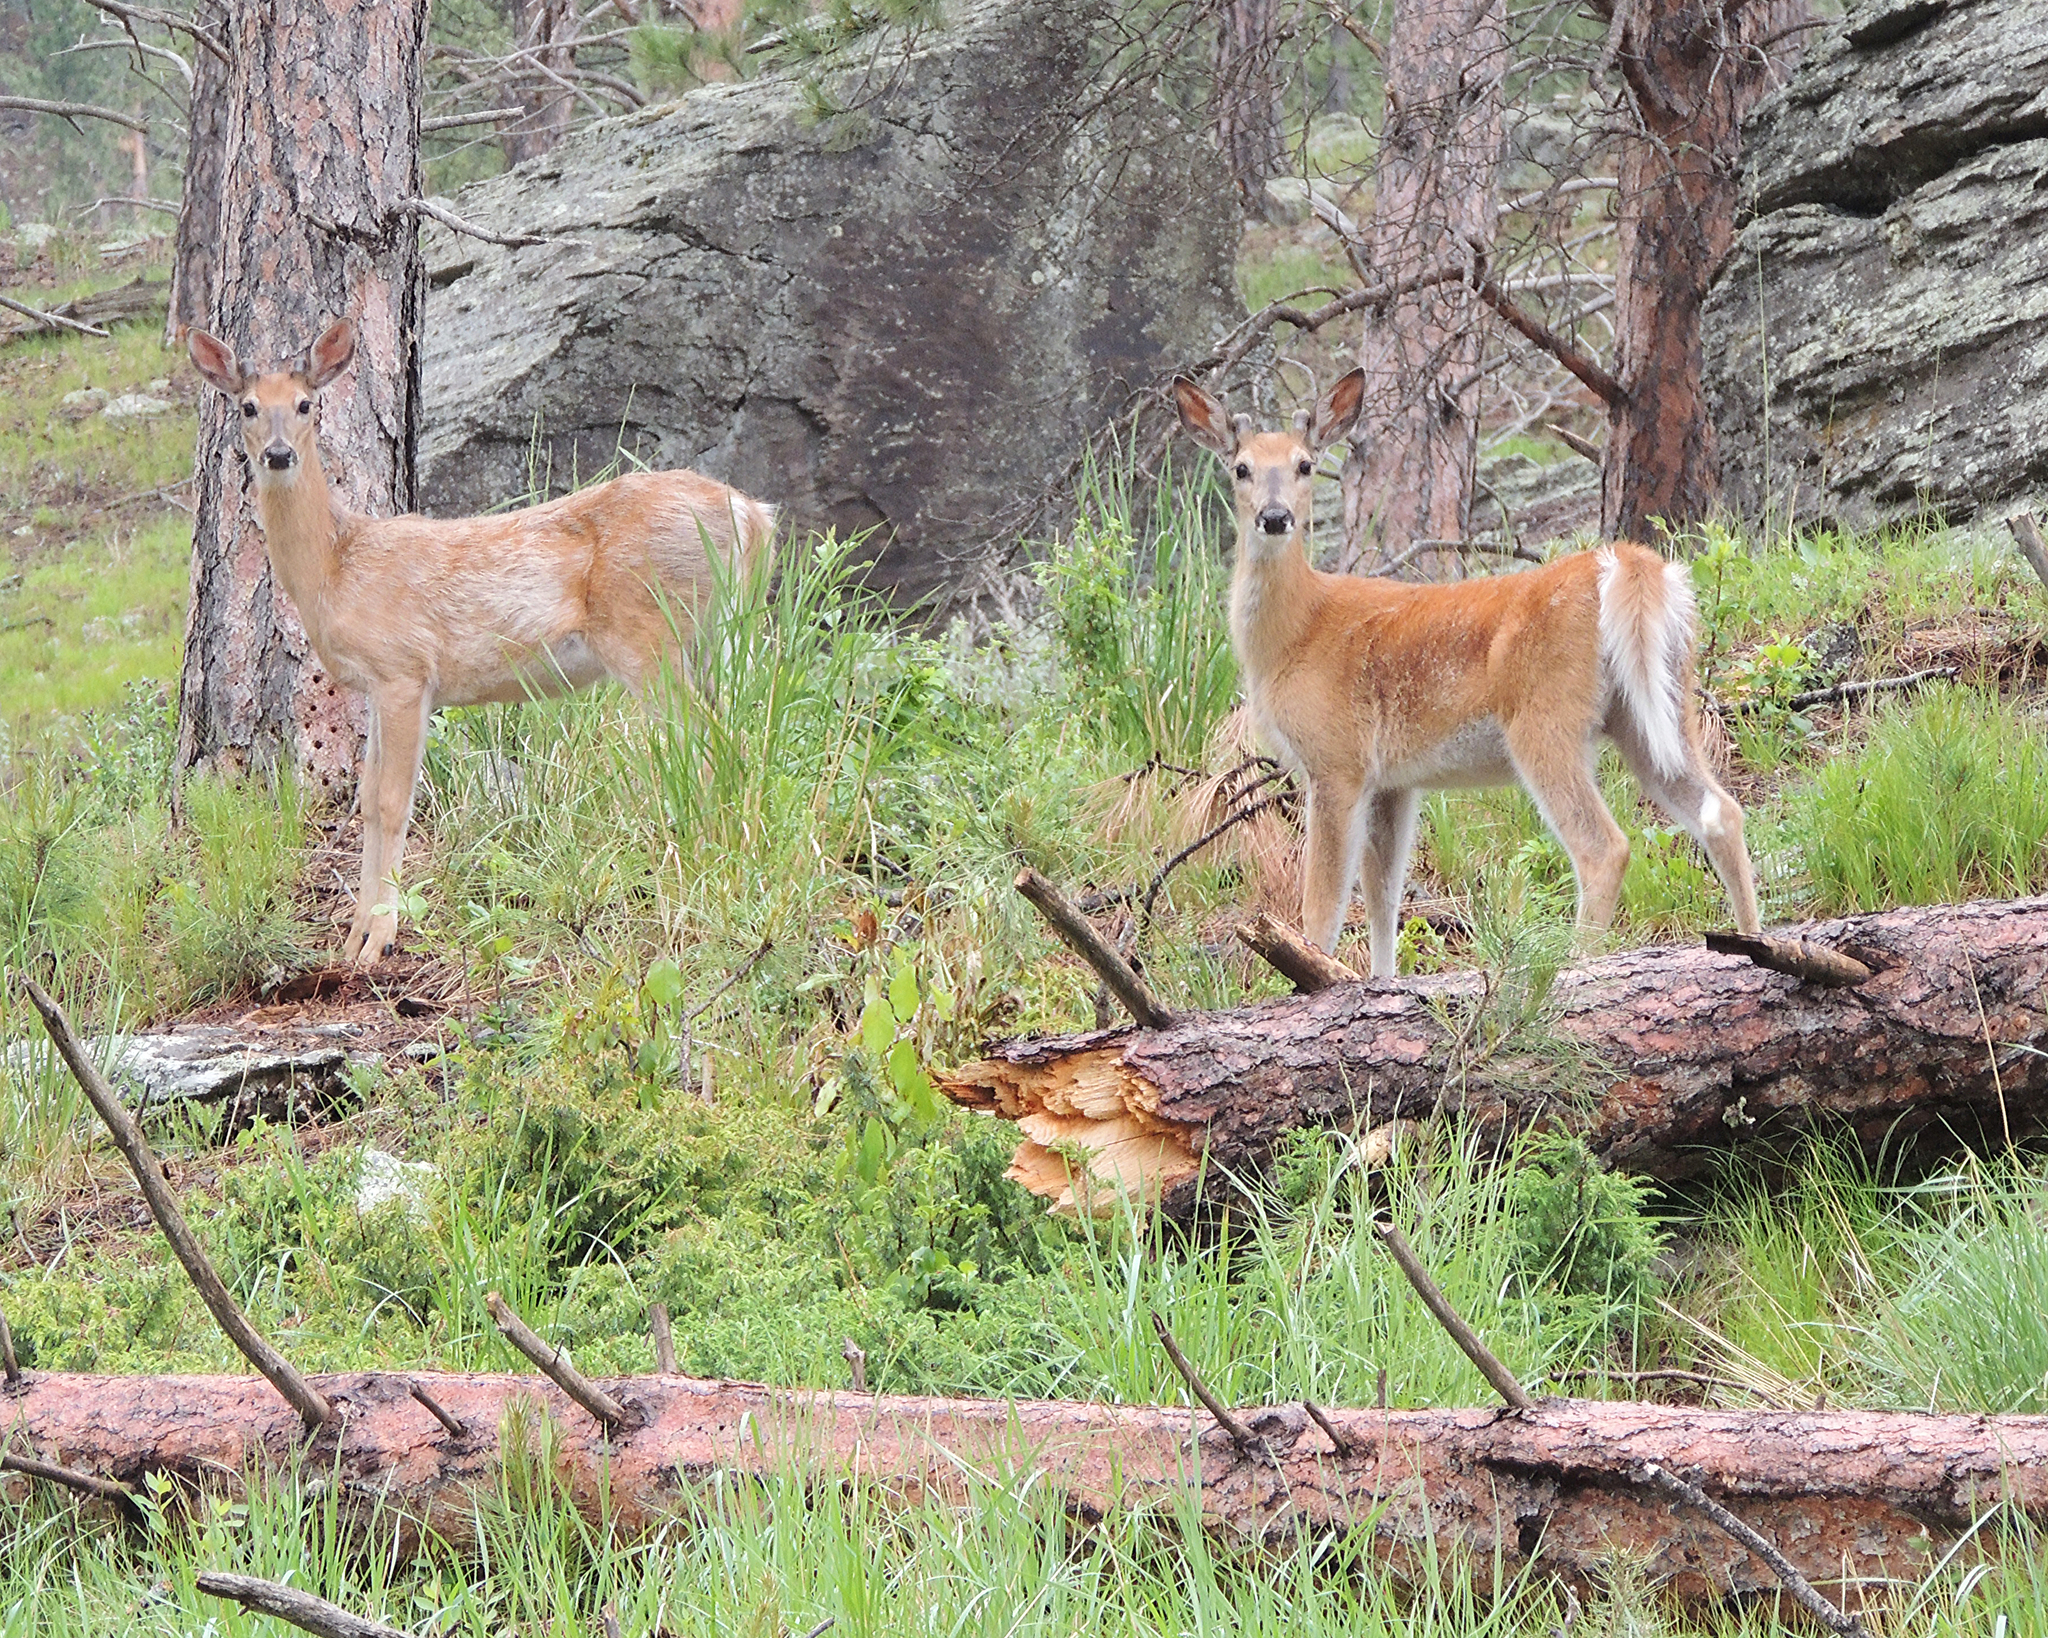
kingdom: Animalia
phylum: Chordata
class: Mammalia
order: Artiodactyla
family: Cervidae
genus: Odocoileus
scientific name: Odocoileus virginianus
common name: White-tailed deer
